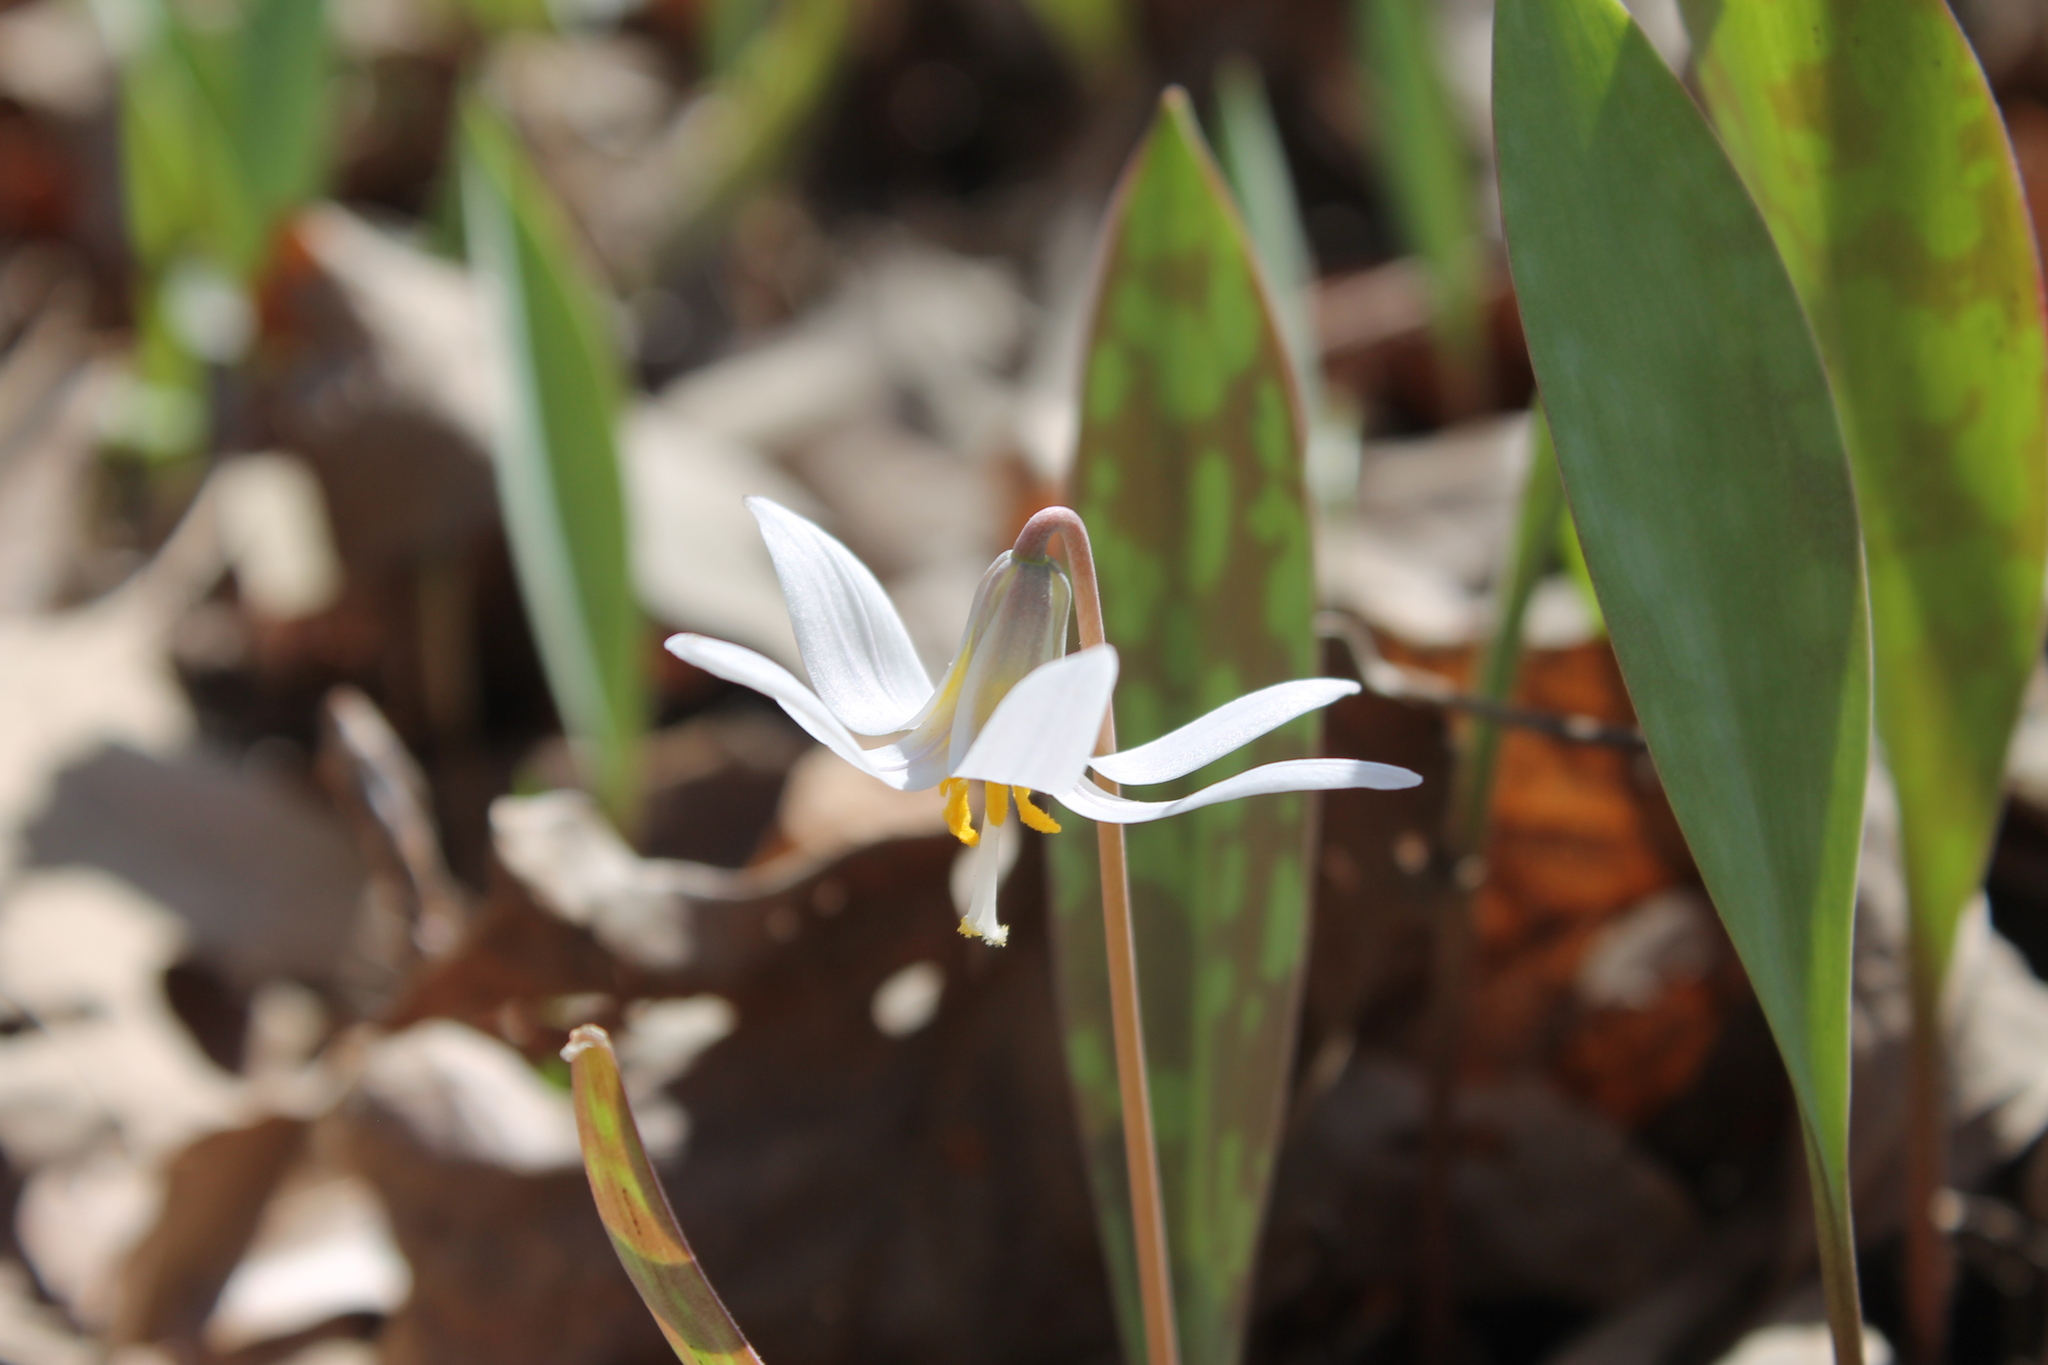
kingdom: Plantae
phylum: Tracheophyta
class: Liliopsida
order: Liliales
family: Liliaceae
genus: Erythronium
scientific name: Erythronium albidum
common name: White trout-lily
